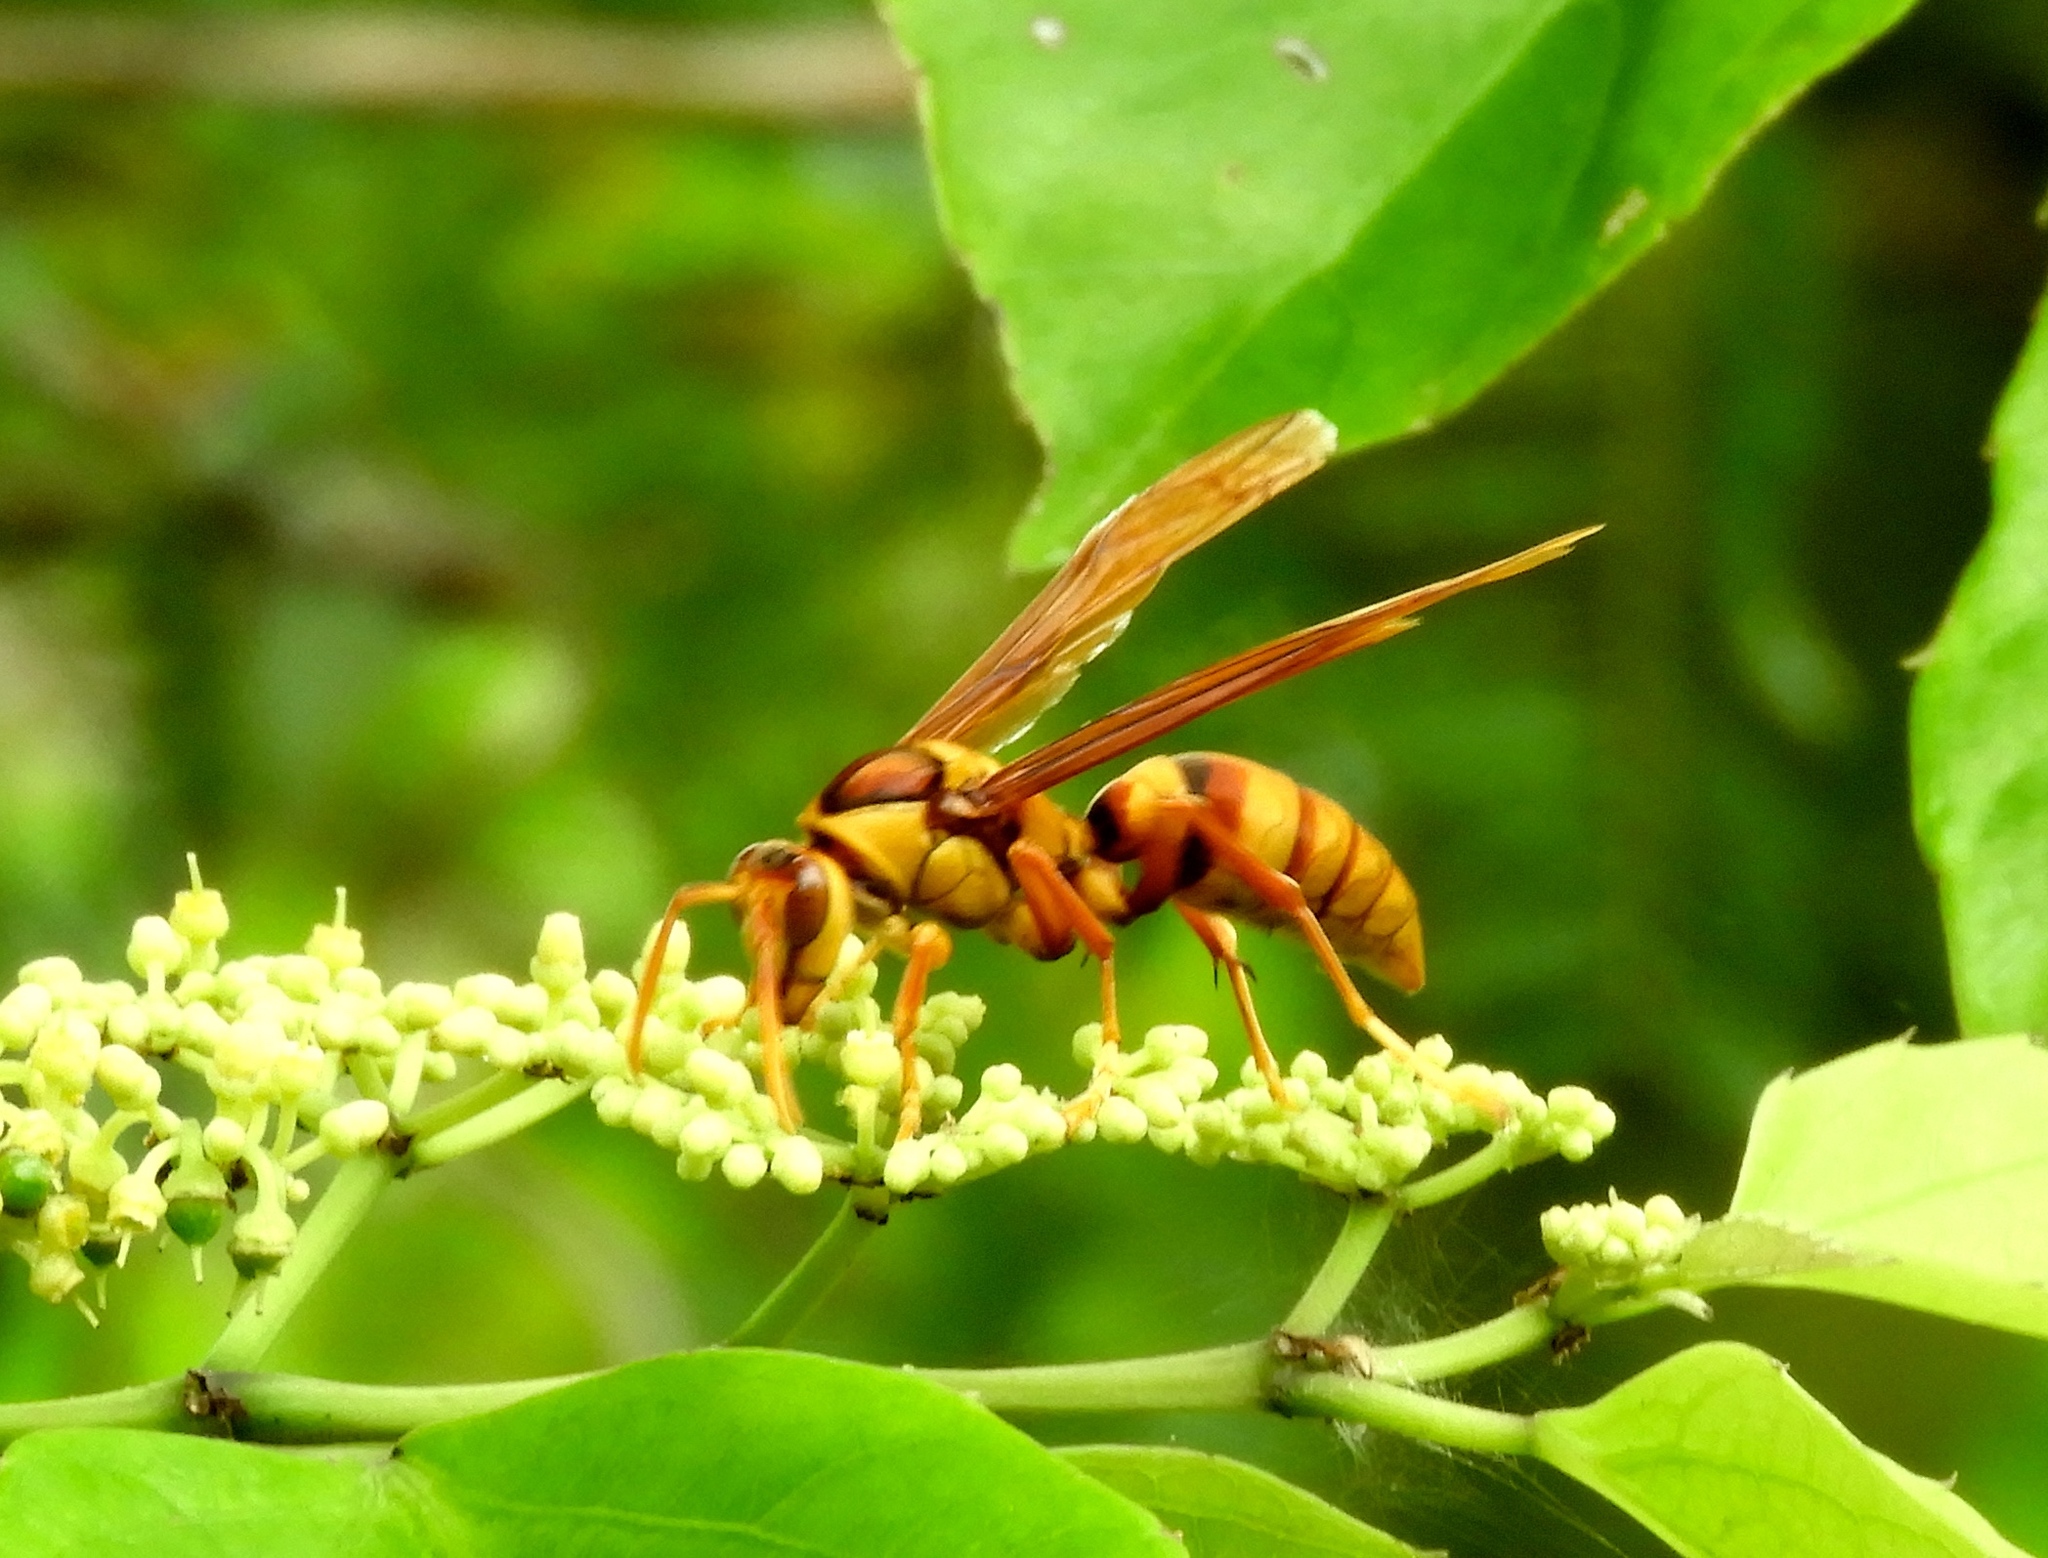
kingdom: Animalia
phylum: Arthropoda
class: Insecta
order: Hymenoptera
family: Eumenidae
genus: Polistes
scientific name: Polistes carnifex
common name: Paper wasp
